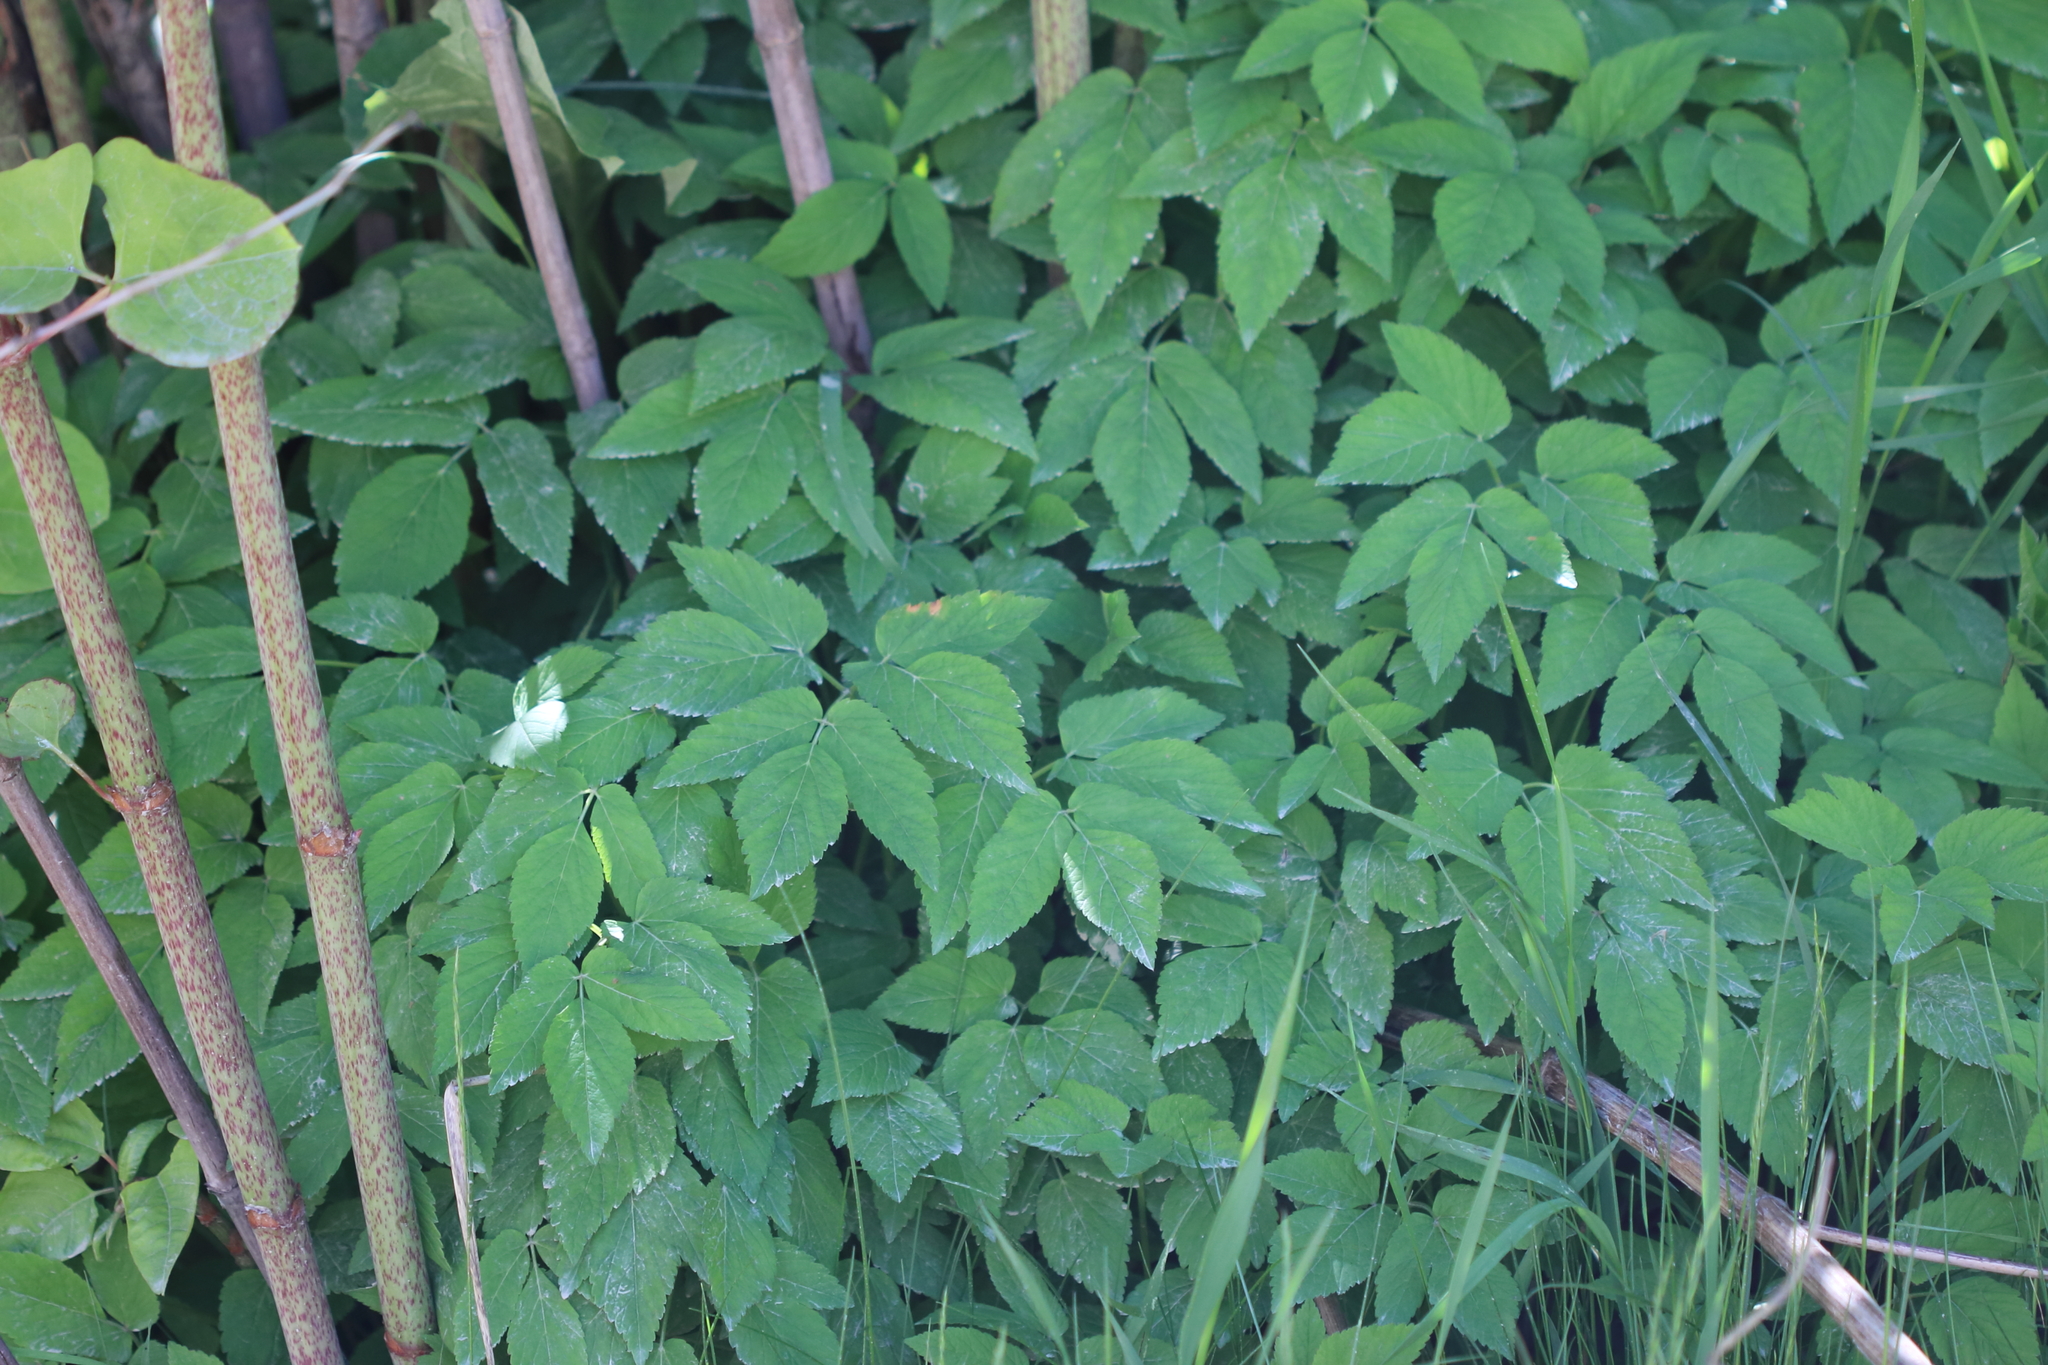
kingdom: Plantae
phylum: Tracheophyta
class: Magnoliopsida
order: Apiales
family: Apiaceae
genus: Aegopodium
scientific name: Aegopodium podagraria
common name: Ground-elder
